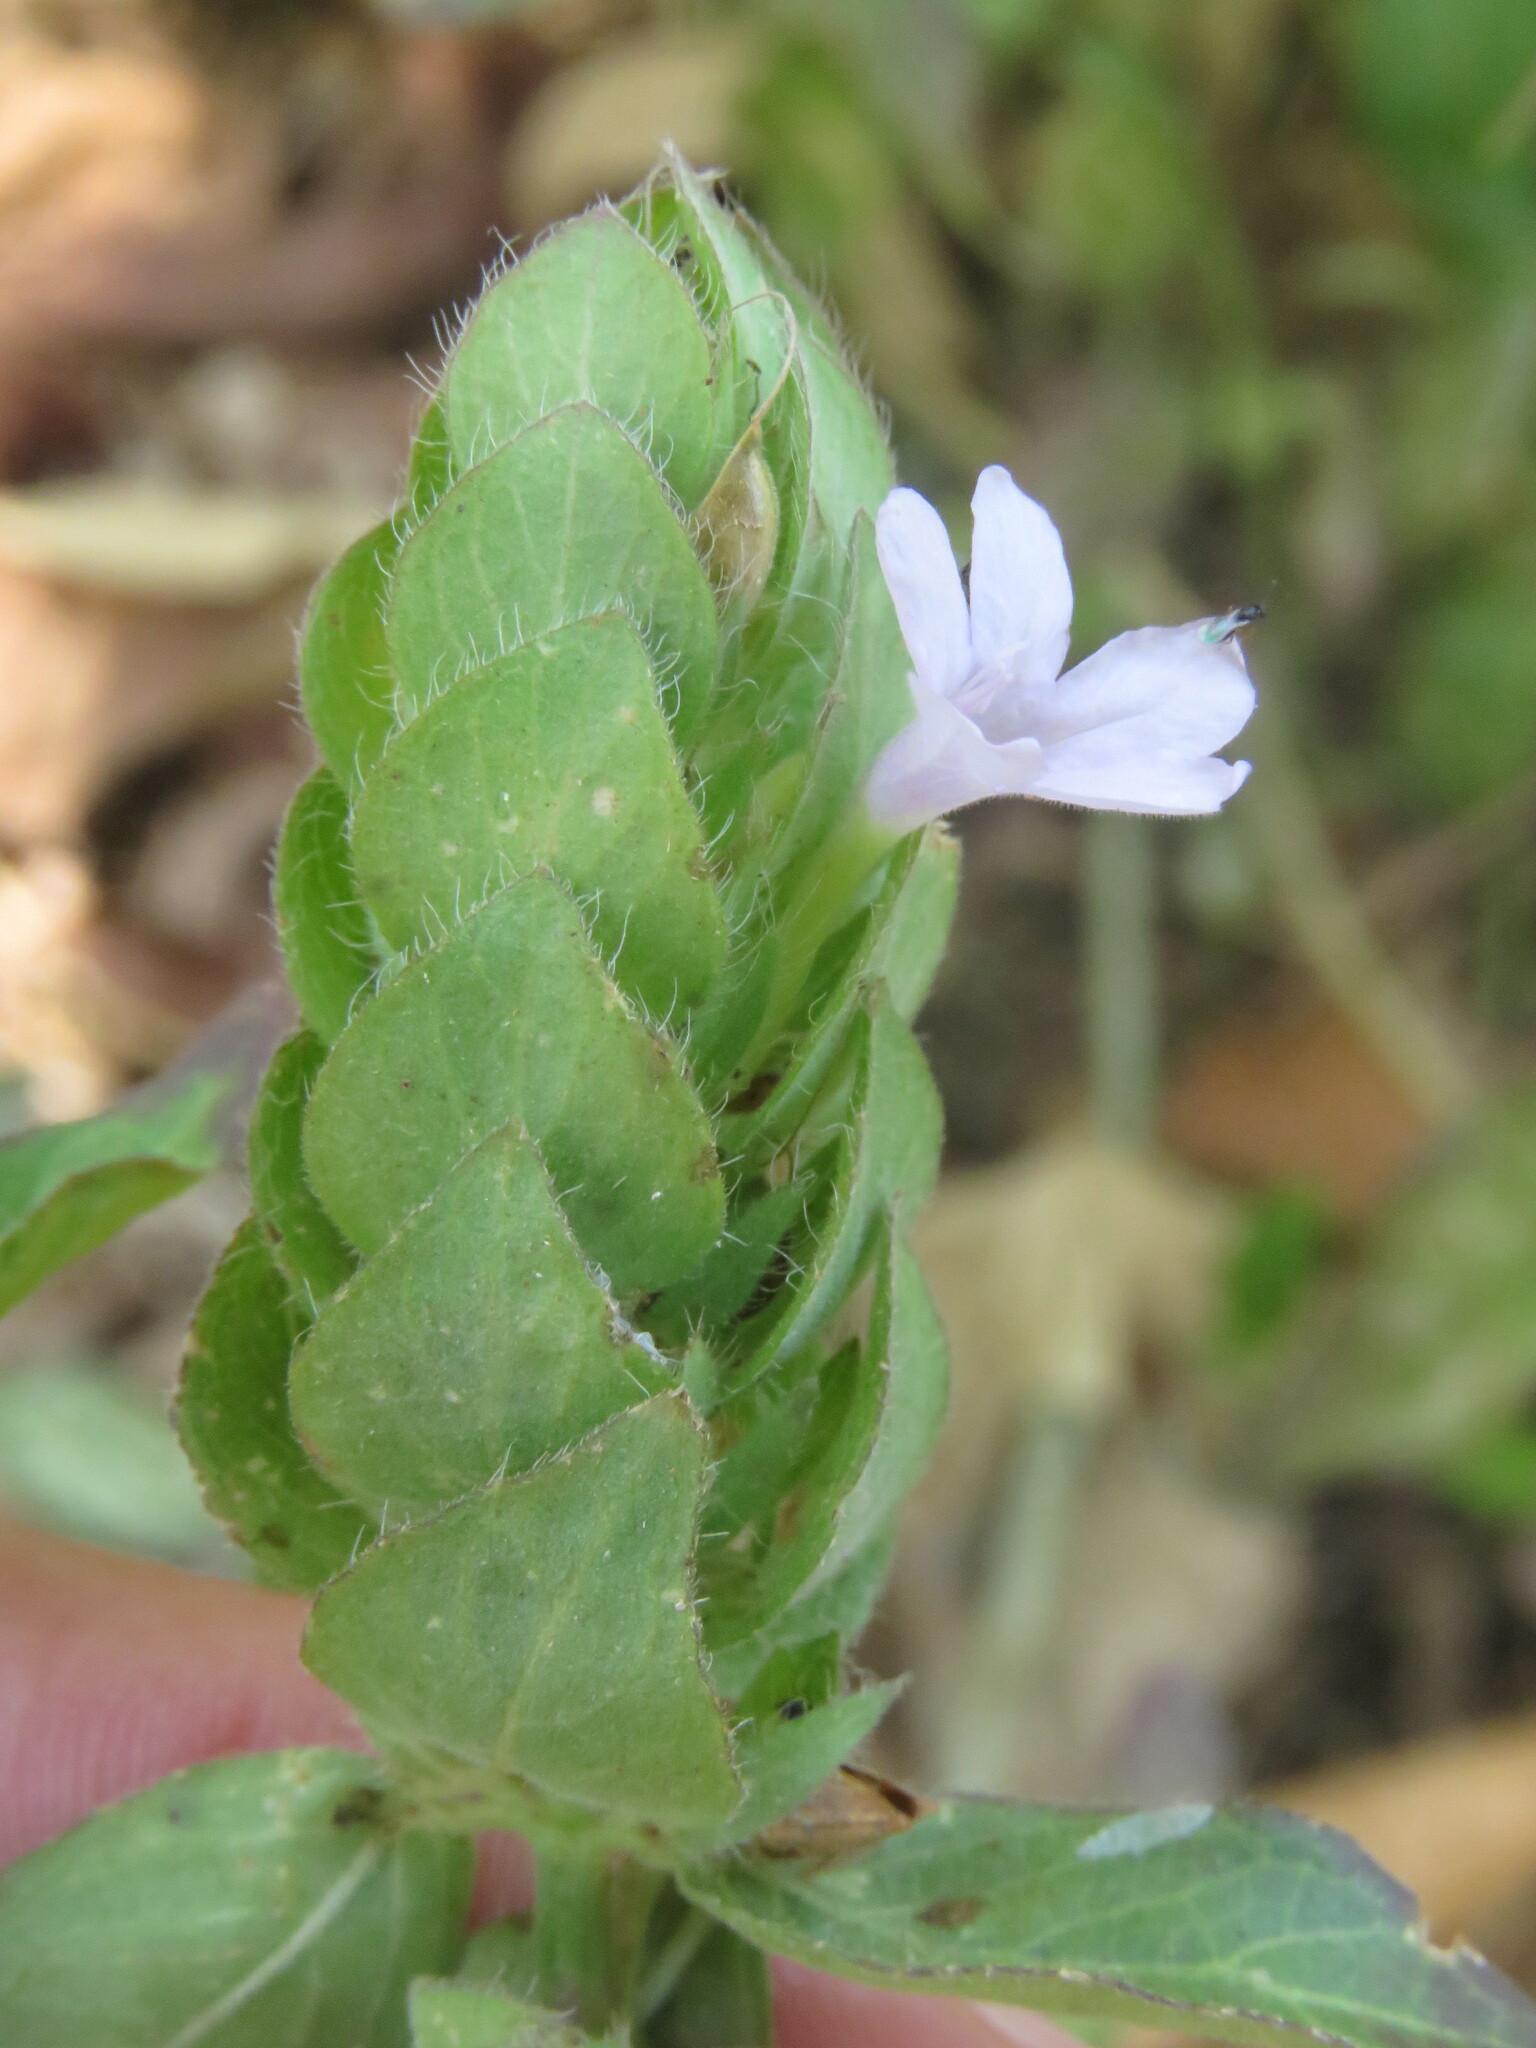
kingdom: Plantae
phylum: Tracheophyta
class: Magnoliopsida
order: Lamiales
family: Acanthaceae
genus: Ruellia
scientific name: Ruellia blechum
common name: Browne's blechum
